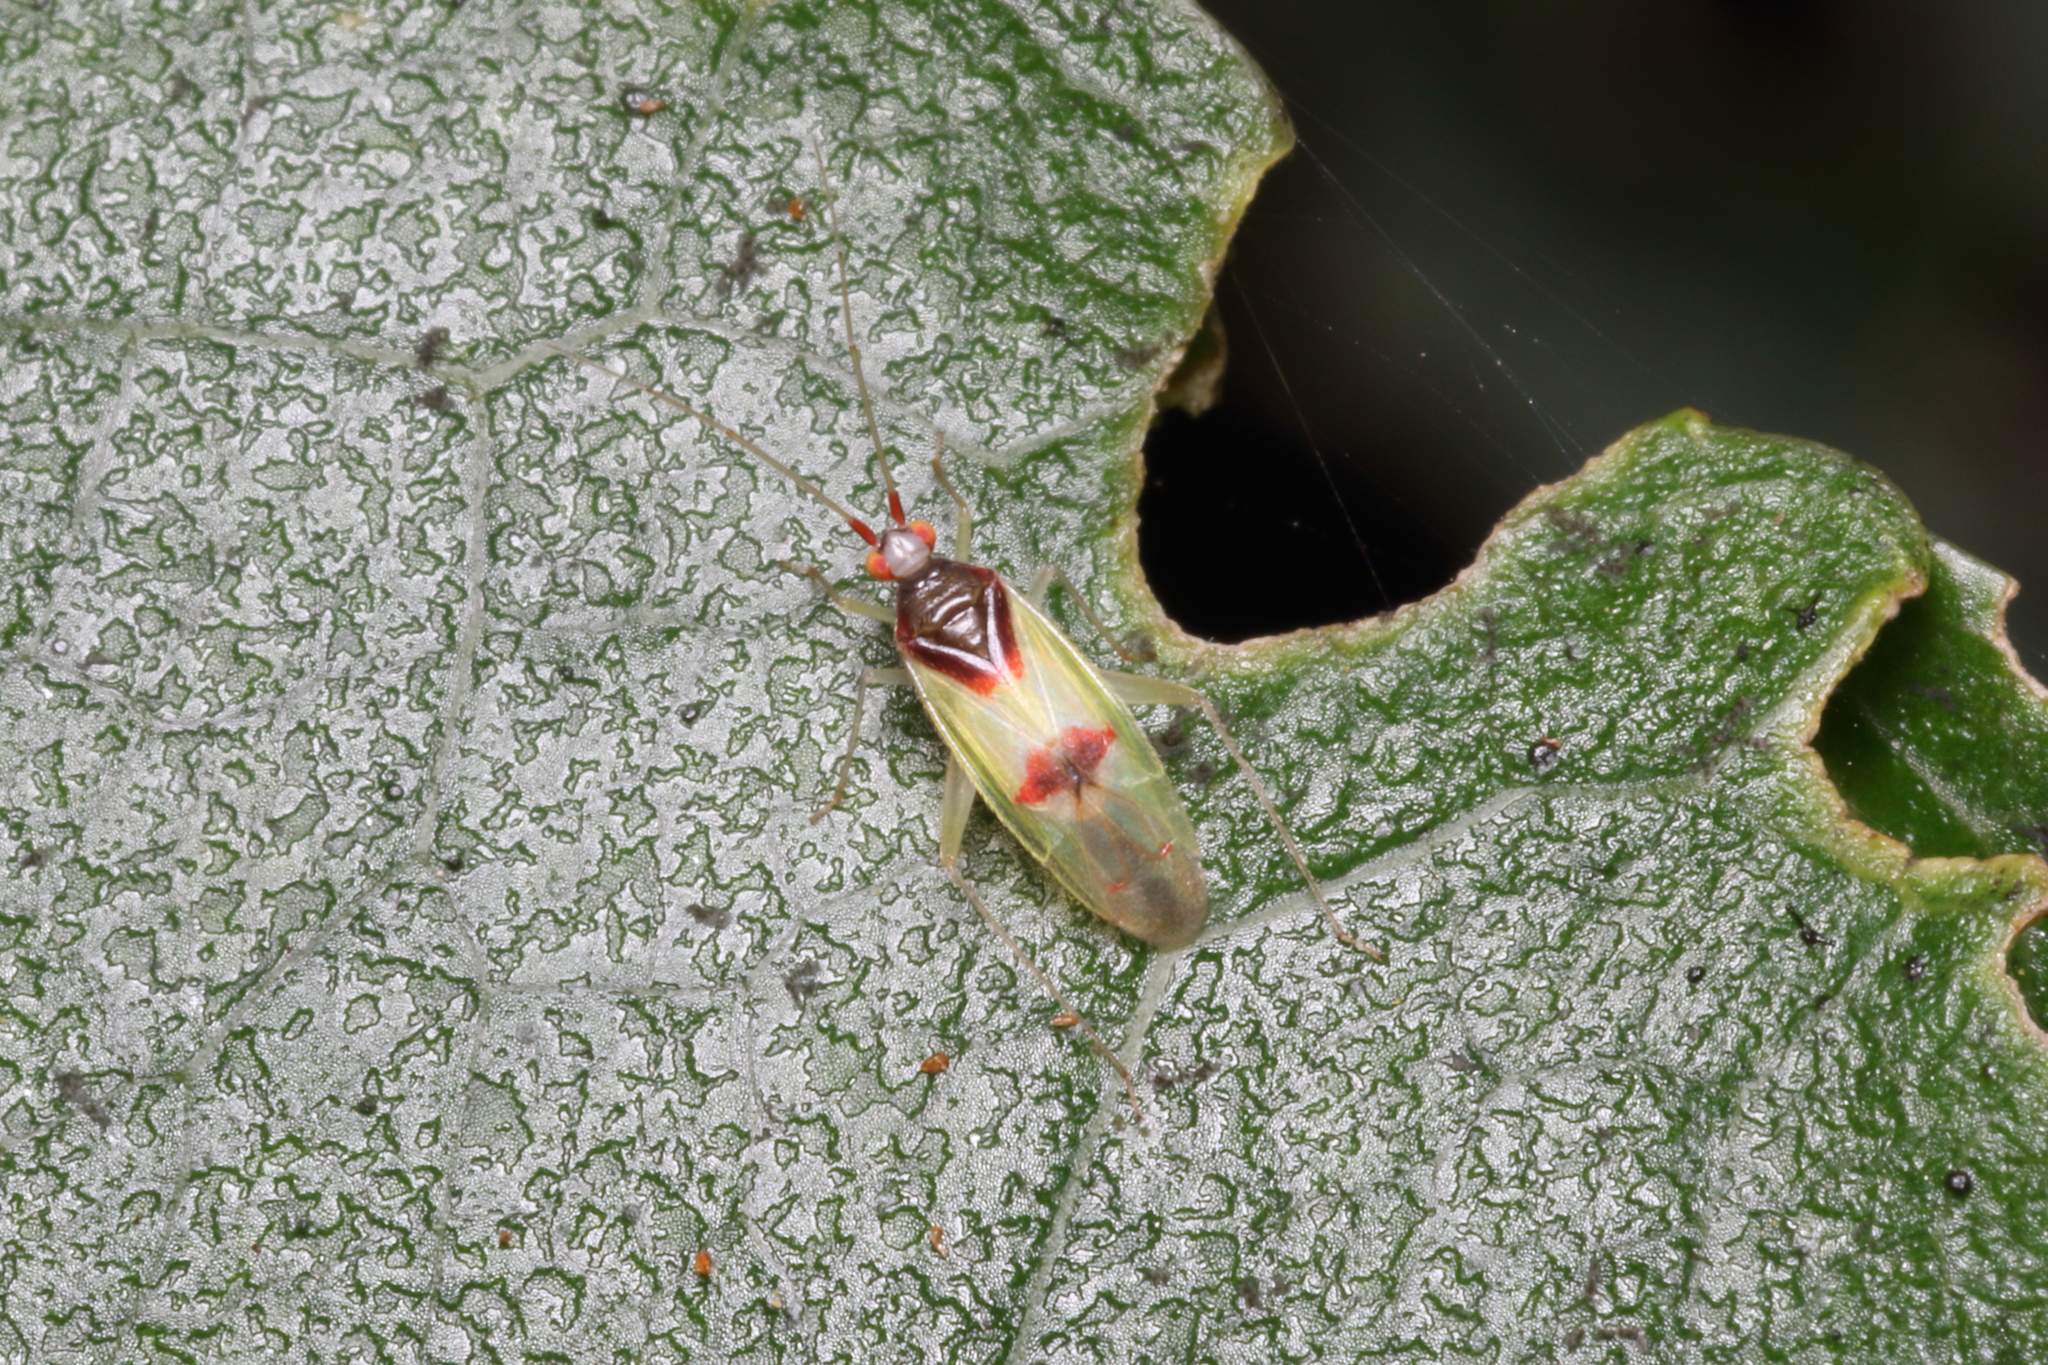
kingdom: Animalia
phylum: Arthropoda
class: Insecta
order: Hemiptera
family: Miridae
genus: Zanchius
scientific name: Zanchius rubicrux
